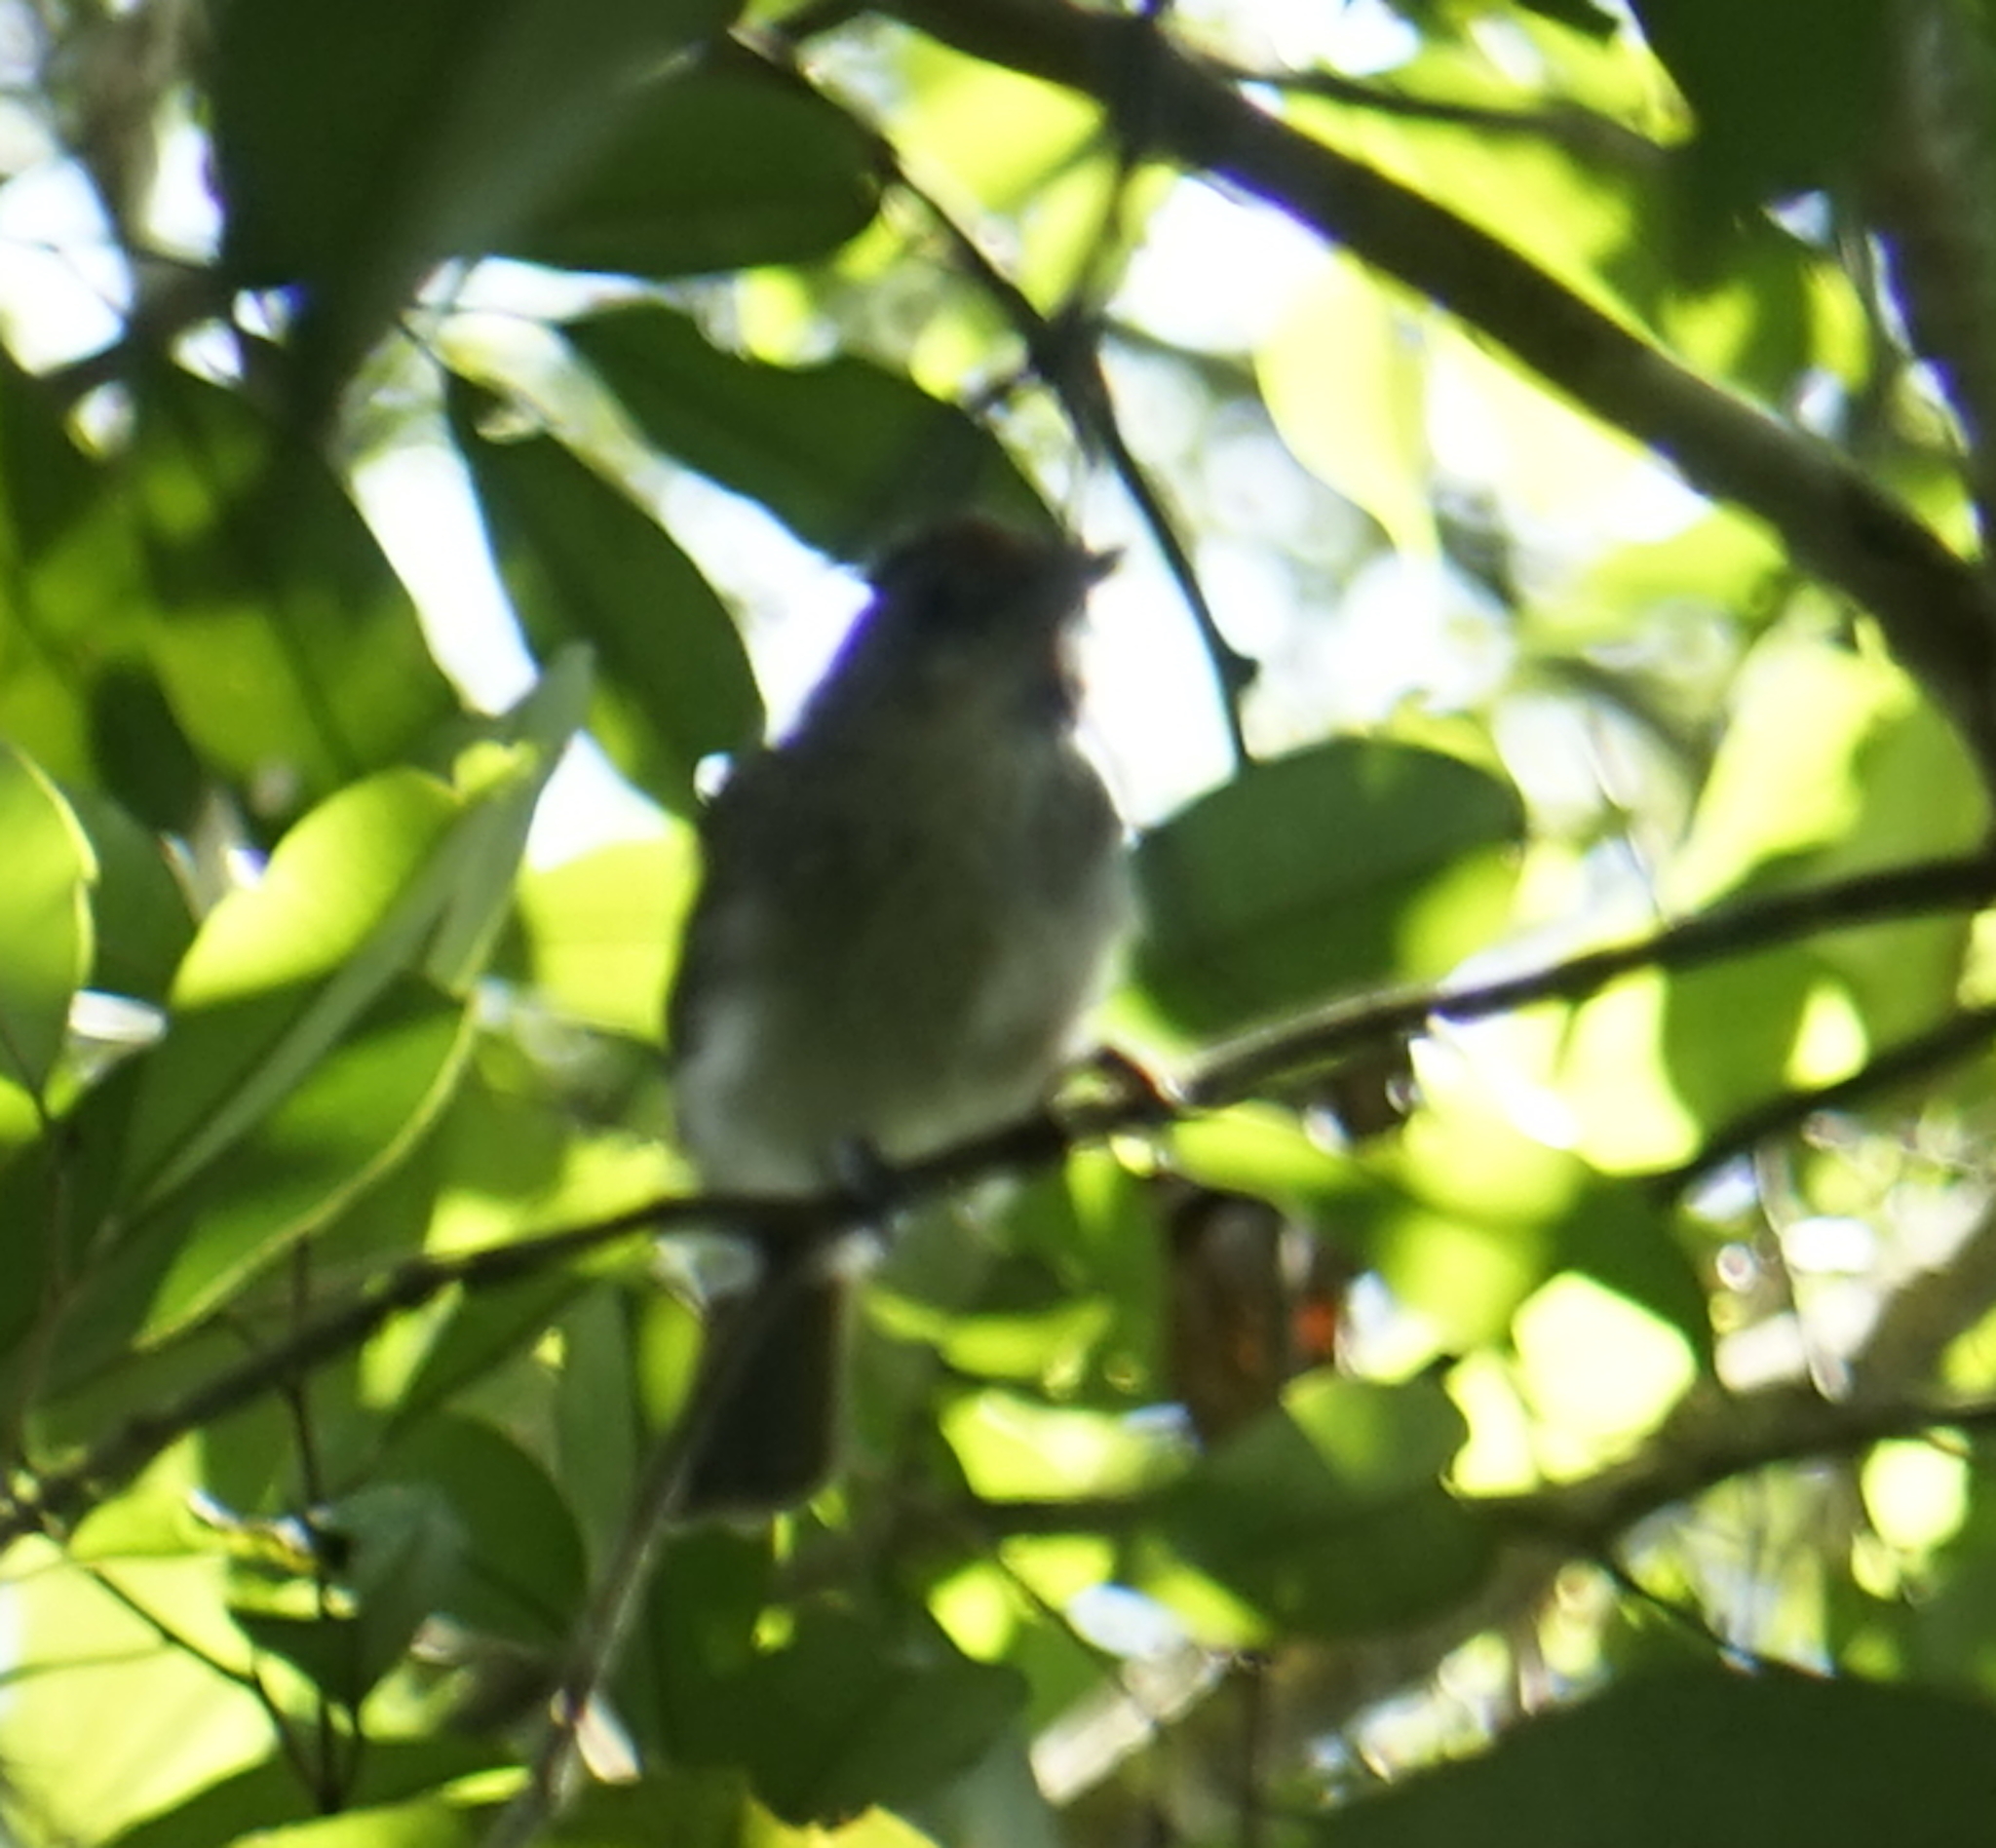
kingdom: Animalia
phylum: Chordata
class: Aves
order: Passeriformes
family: Pellorneidae
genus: Malacopteron
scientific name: Malacopteron magnum
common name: Rufous-crowned babbler
